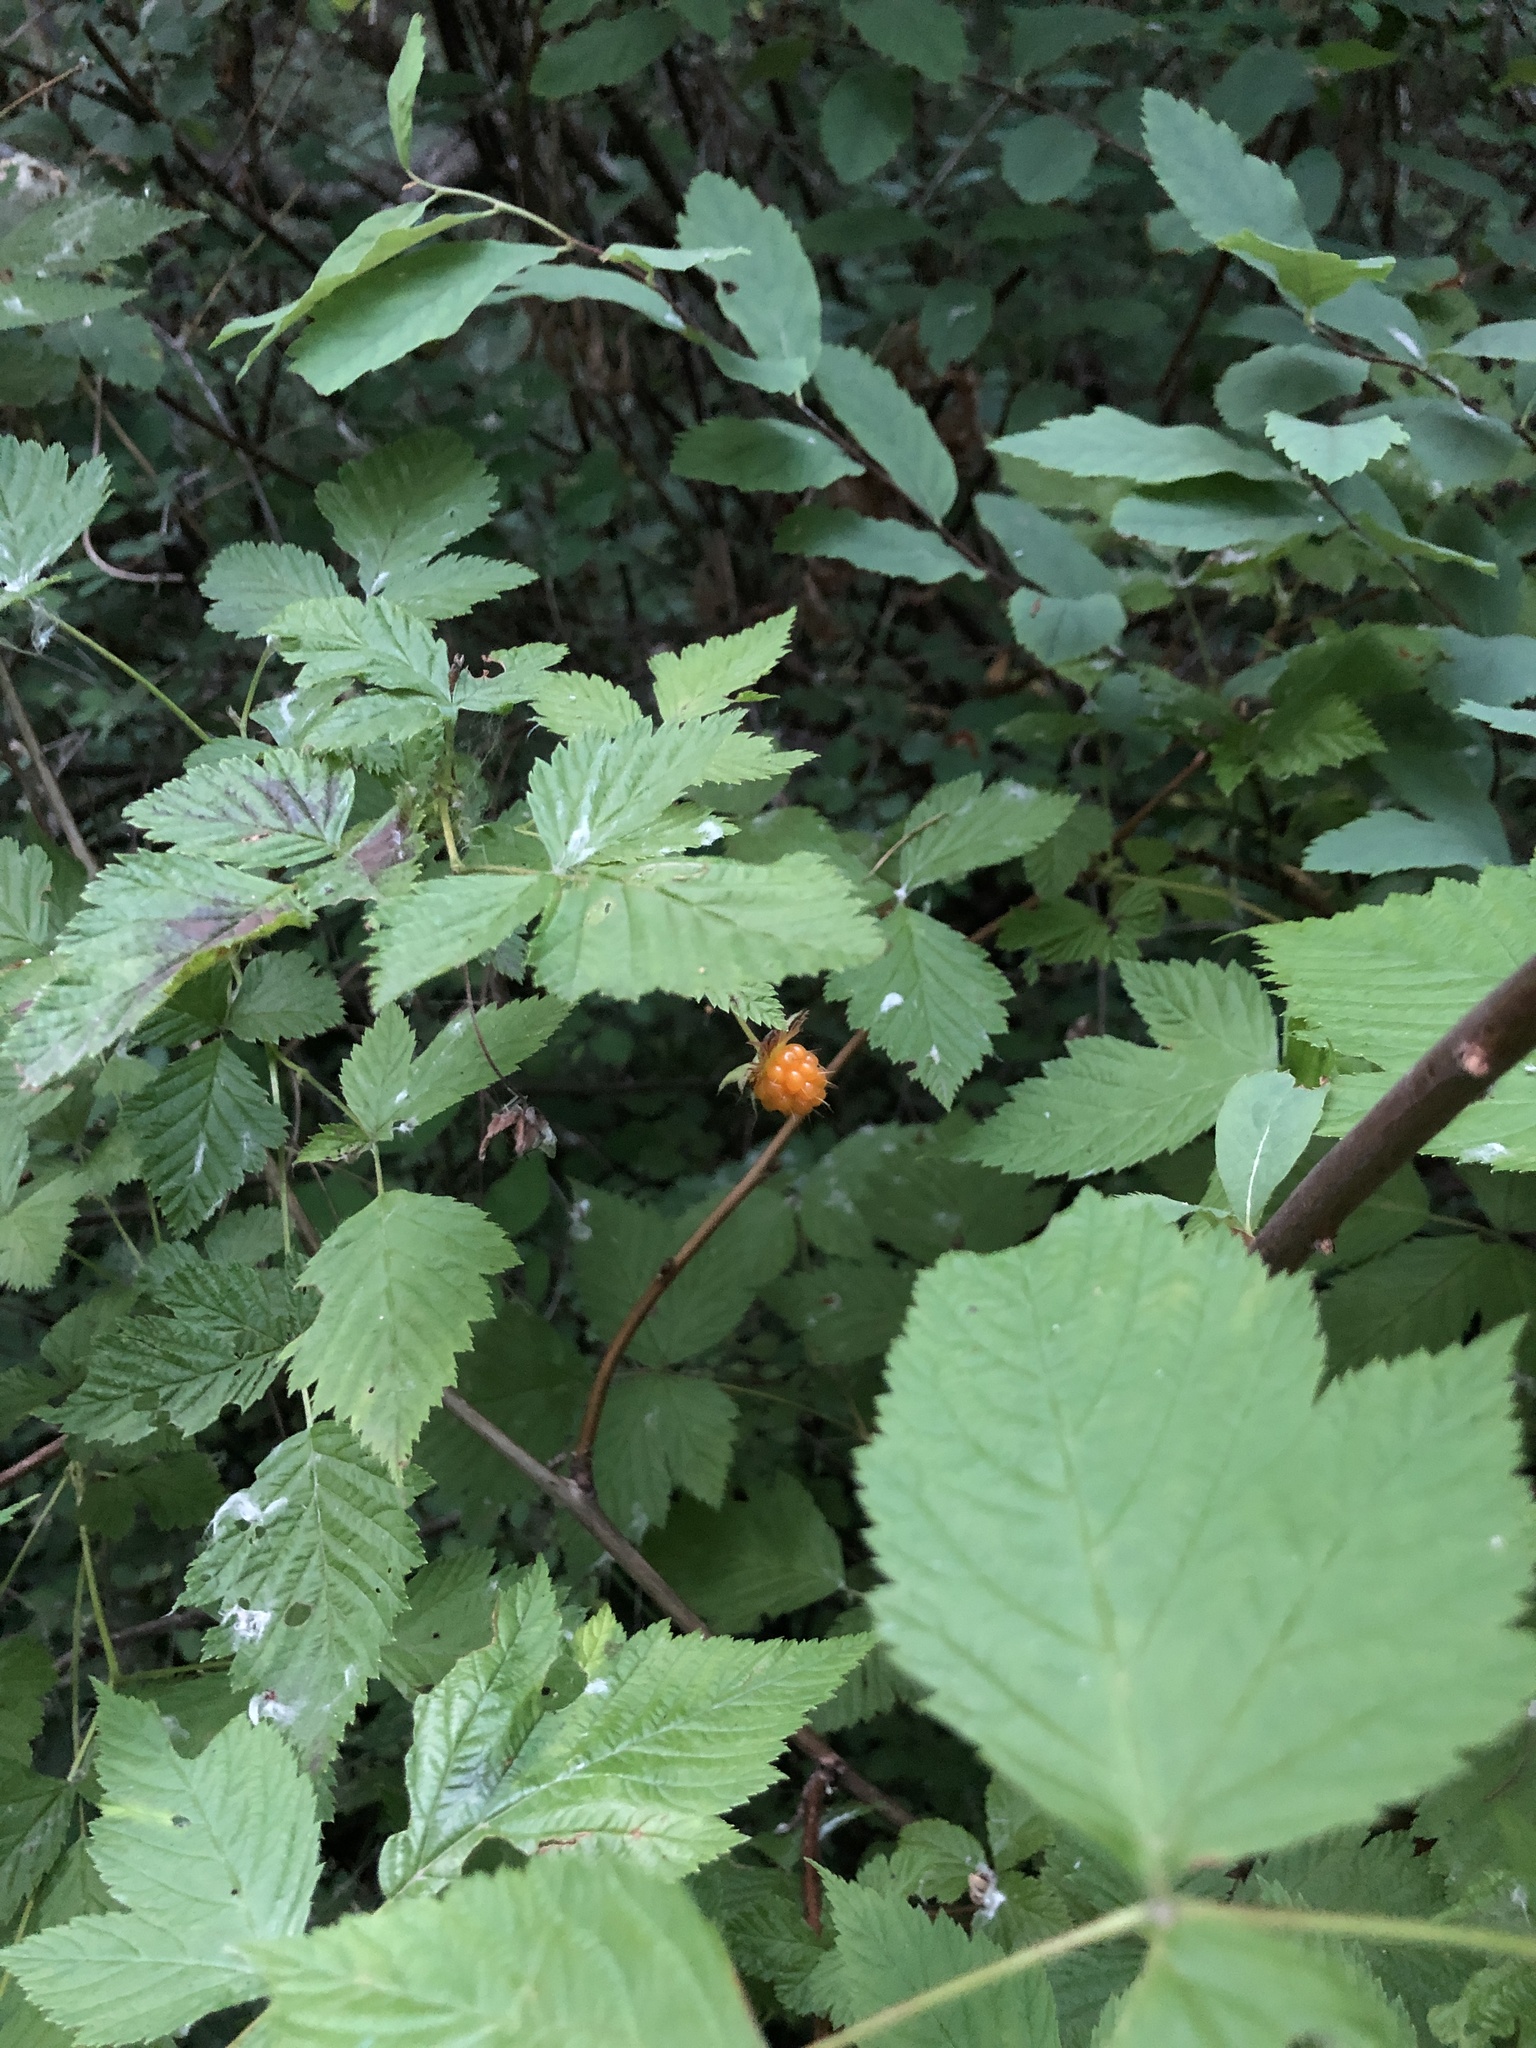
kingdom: Plantae
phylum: Tracheophyta
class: Magnoliopsida
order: Rosales
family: Rosaceae
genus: Rubus
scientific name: Rubus spectabilis
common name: Salmonberry
